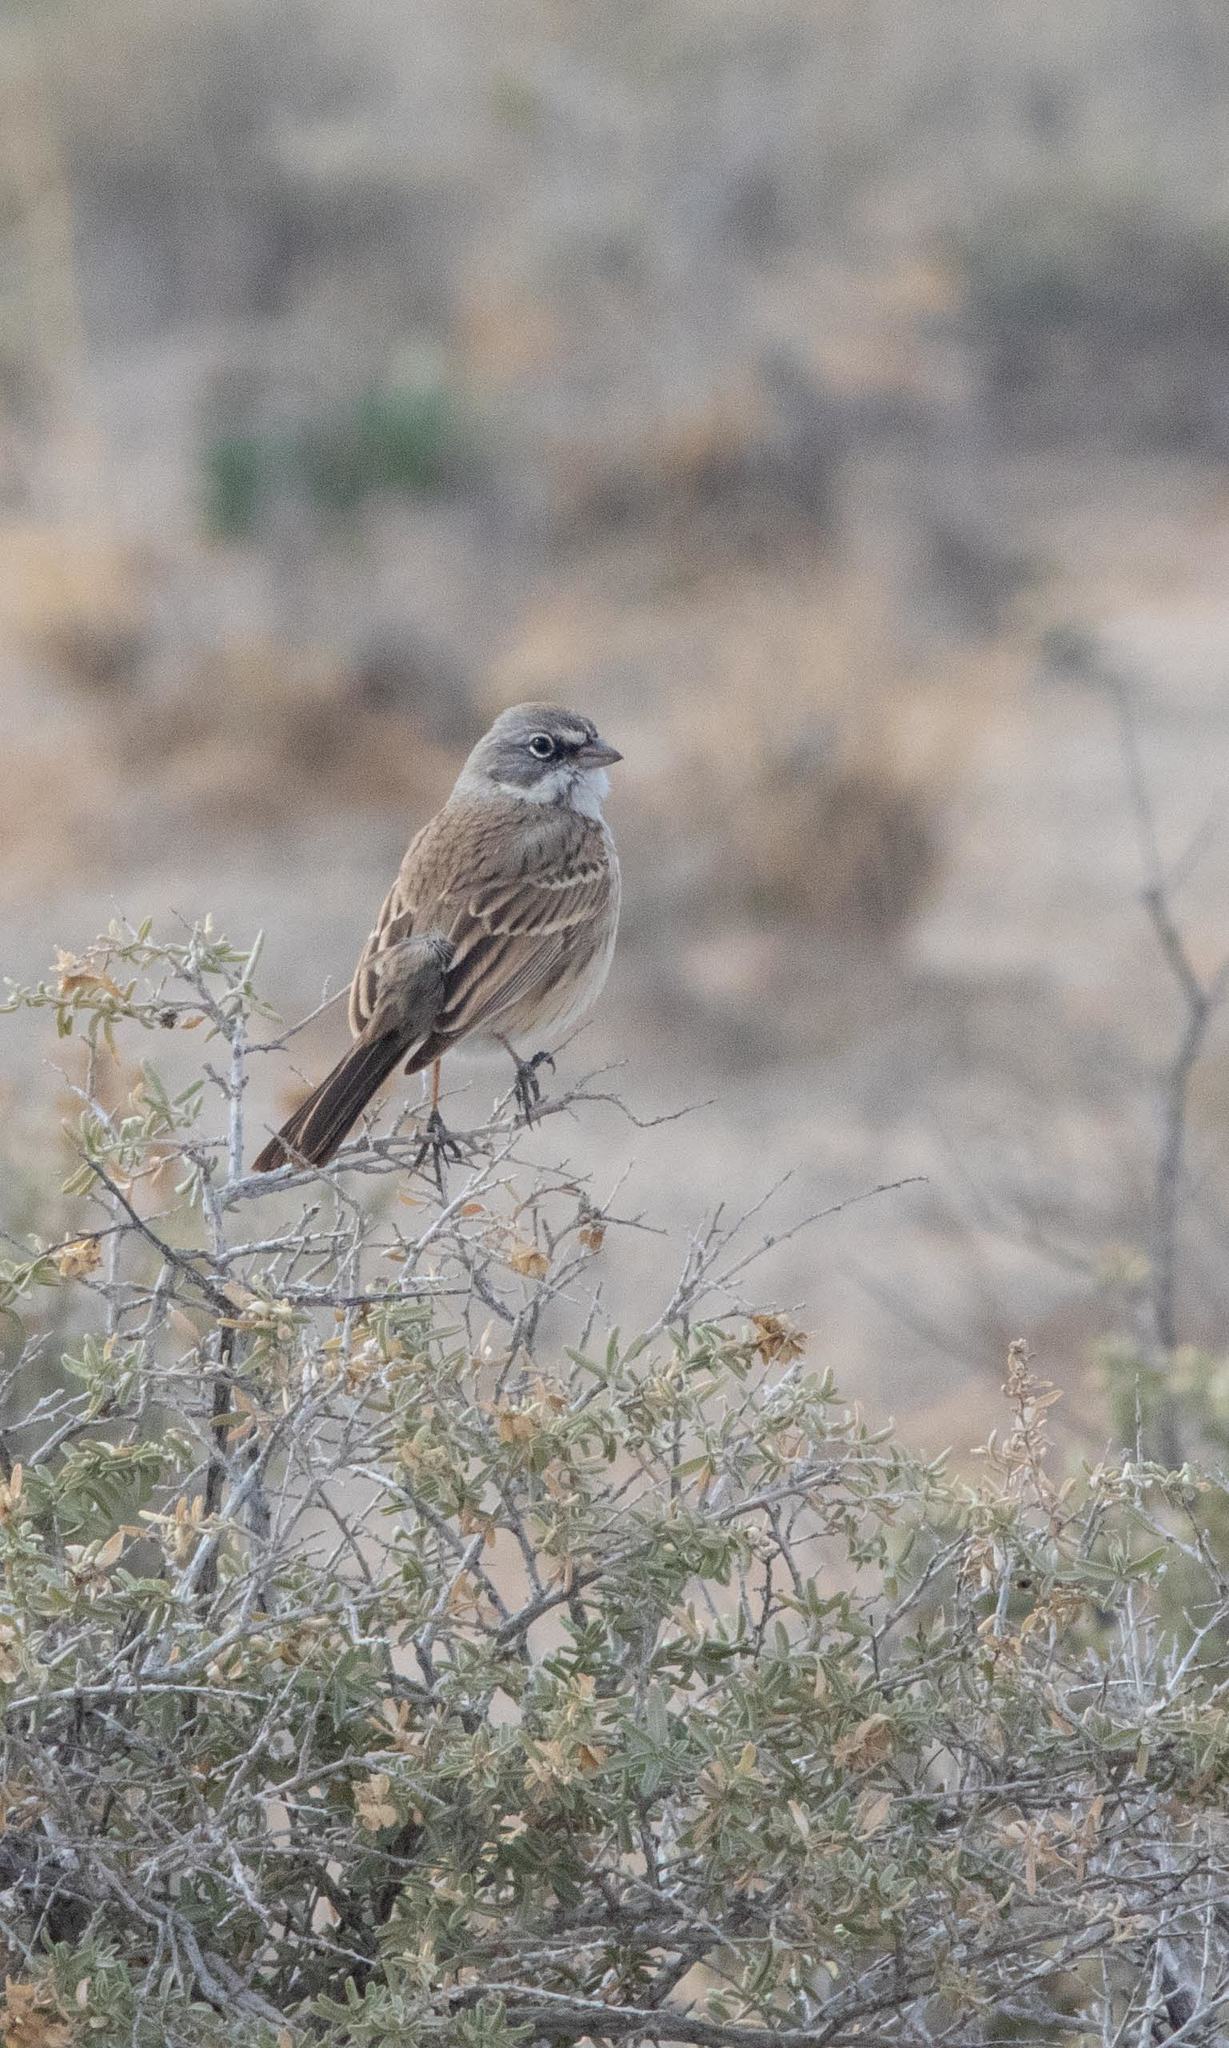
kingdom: Animalia
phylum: Chordata
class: Aves
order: Passeriformes
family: Passerellidae
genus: Artemisiospiza
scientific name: Artemisiospiza nevadensis
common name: Sagebrush sparrow
